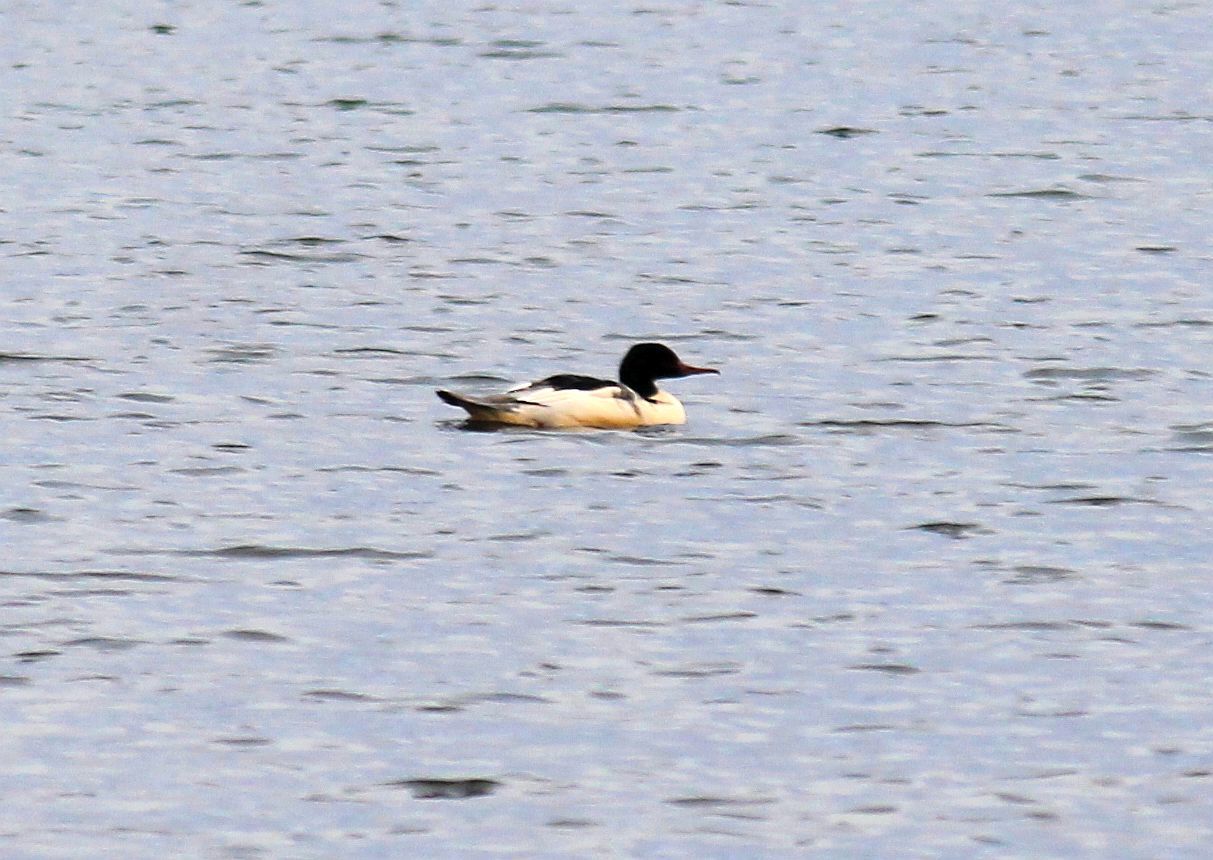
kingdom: Animalia
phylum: Chordata
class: Aves
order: Anseriformes
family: Anatidae
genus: Mergus
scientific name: Mergus merganser
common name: Common merganser
